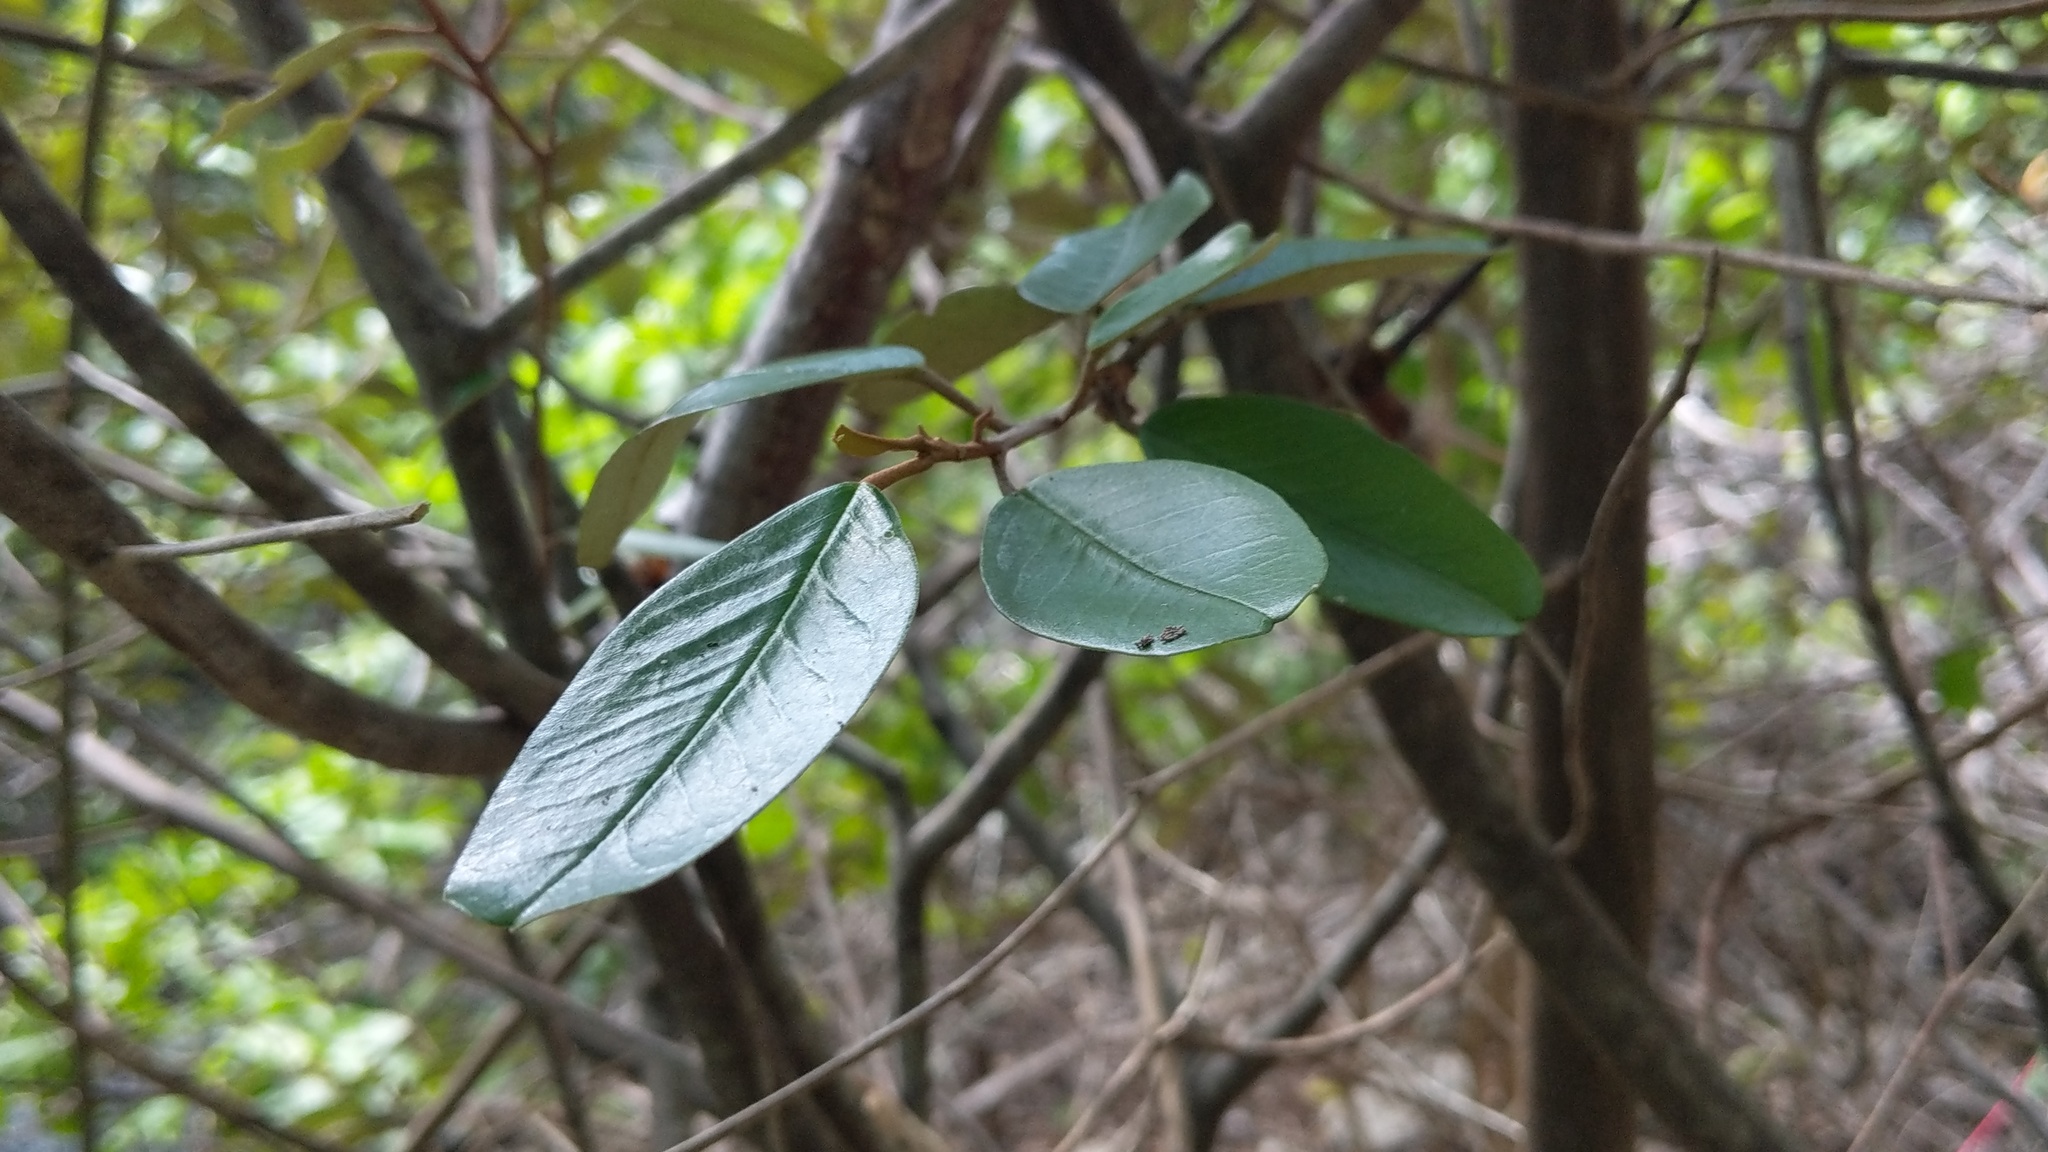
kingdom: Plantae
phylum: Tracheophyta
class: Magnoliopsida
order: Brassicales
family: Capparaceae
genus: Quadrella
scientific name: Quadrella cynophallophora
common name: Black willow
